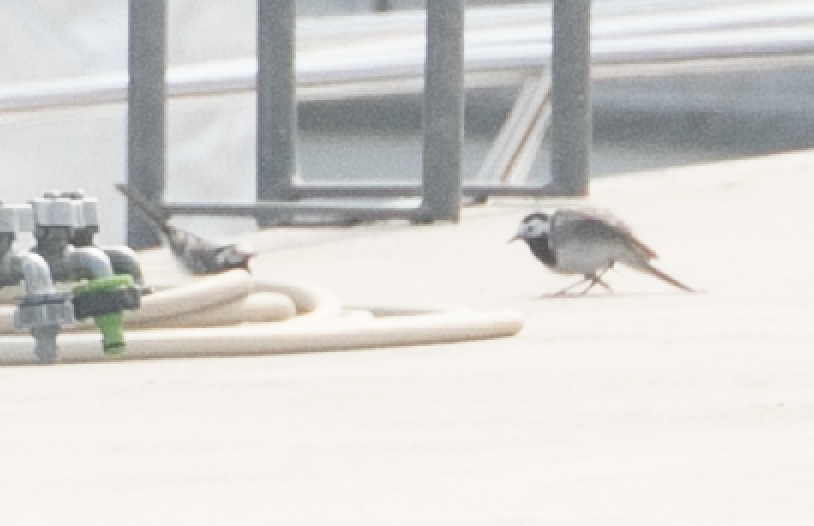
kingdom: Animalia
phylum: Chordata
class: Aves
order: Passeriformes
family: Motacillidae
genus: Motacilla
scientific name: Motacilla alba
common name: White wagtail
